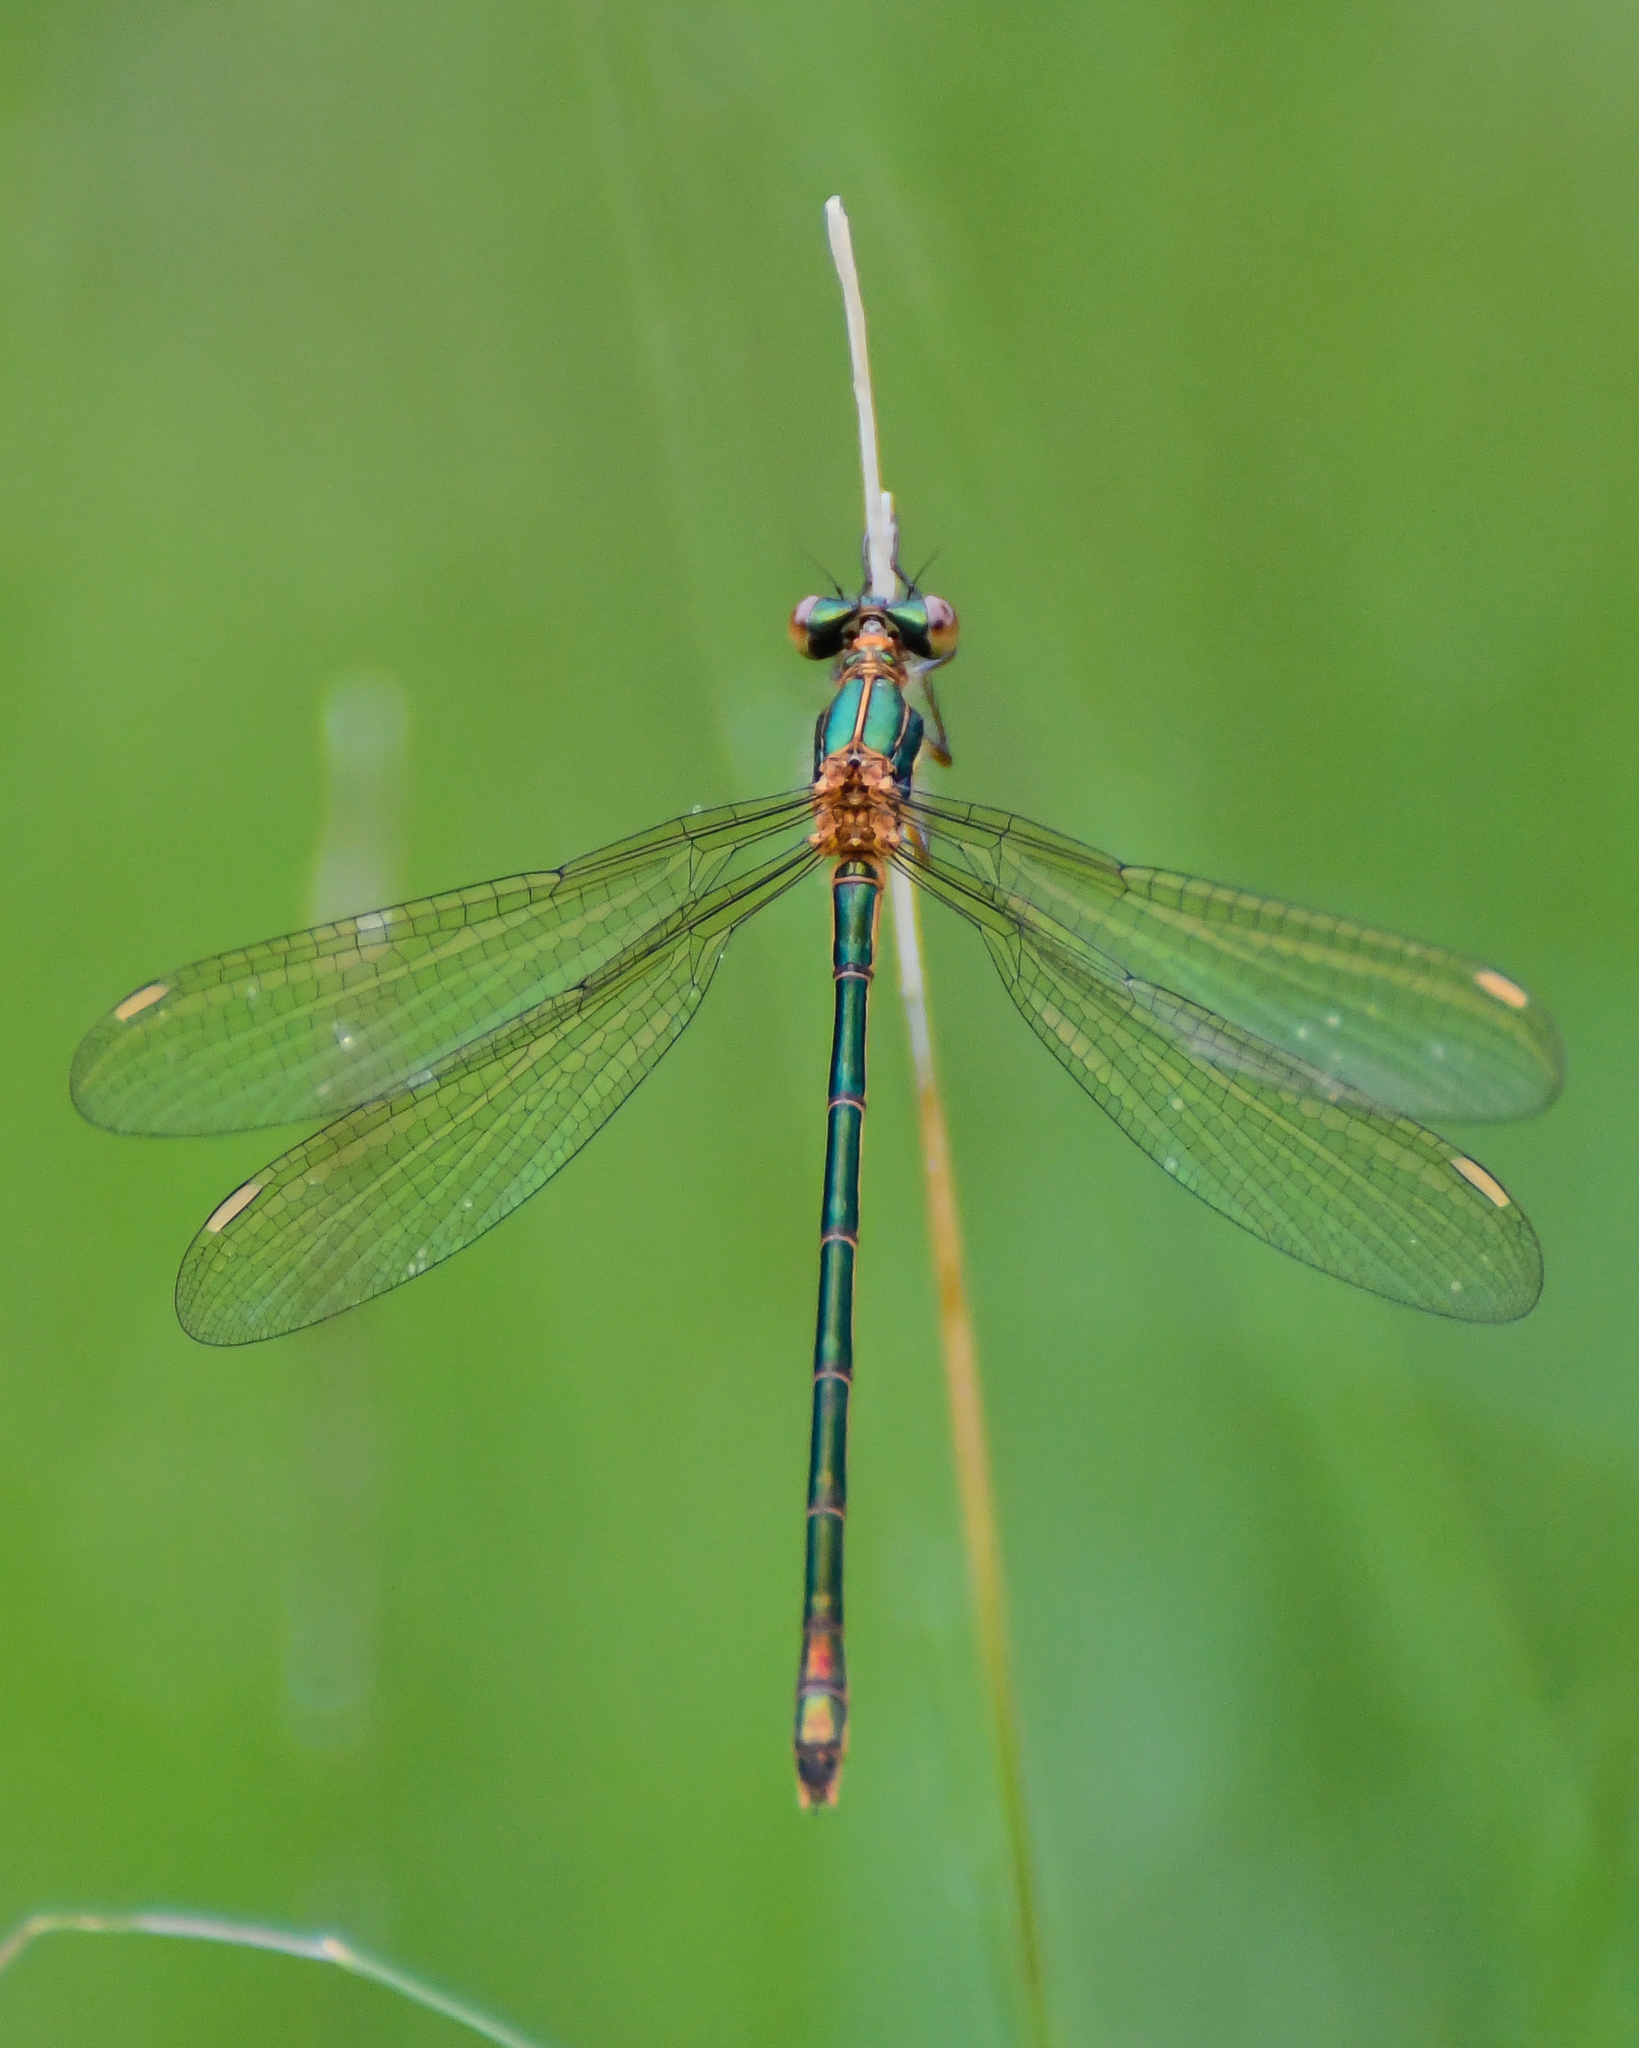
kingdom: Animalia
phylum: Arthropoda
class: Insecta
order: Odonata
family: Lestidae
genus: Lestes
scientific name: Lestes sponsa
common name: Common spreadwing
